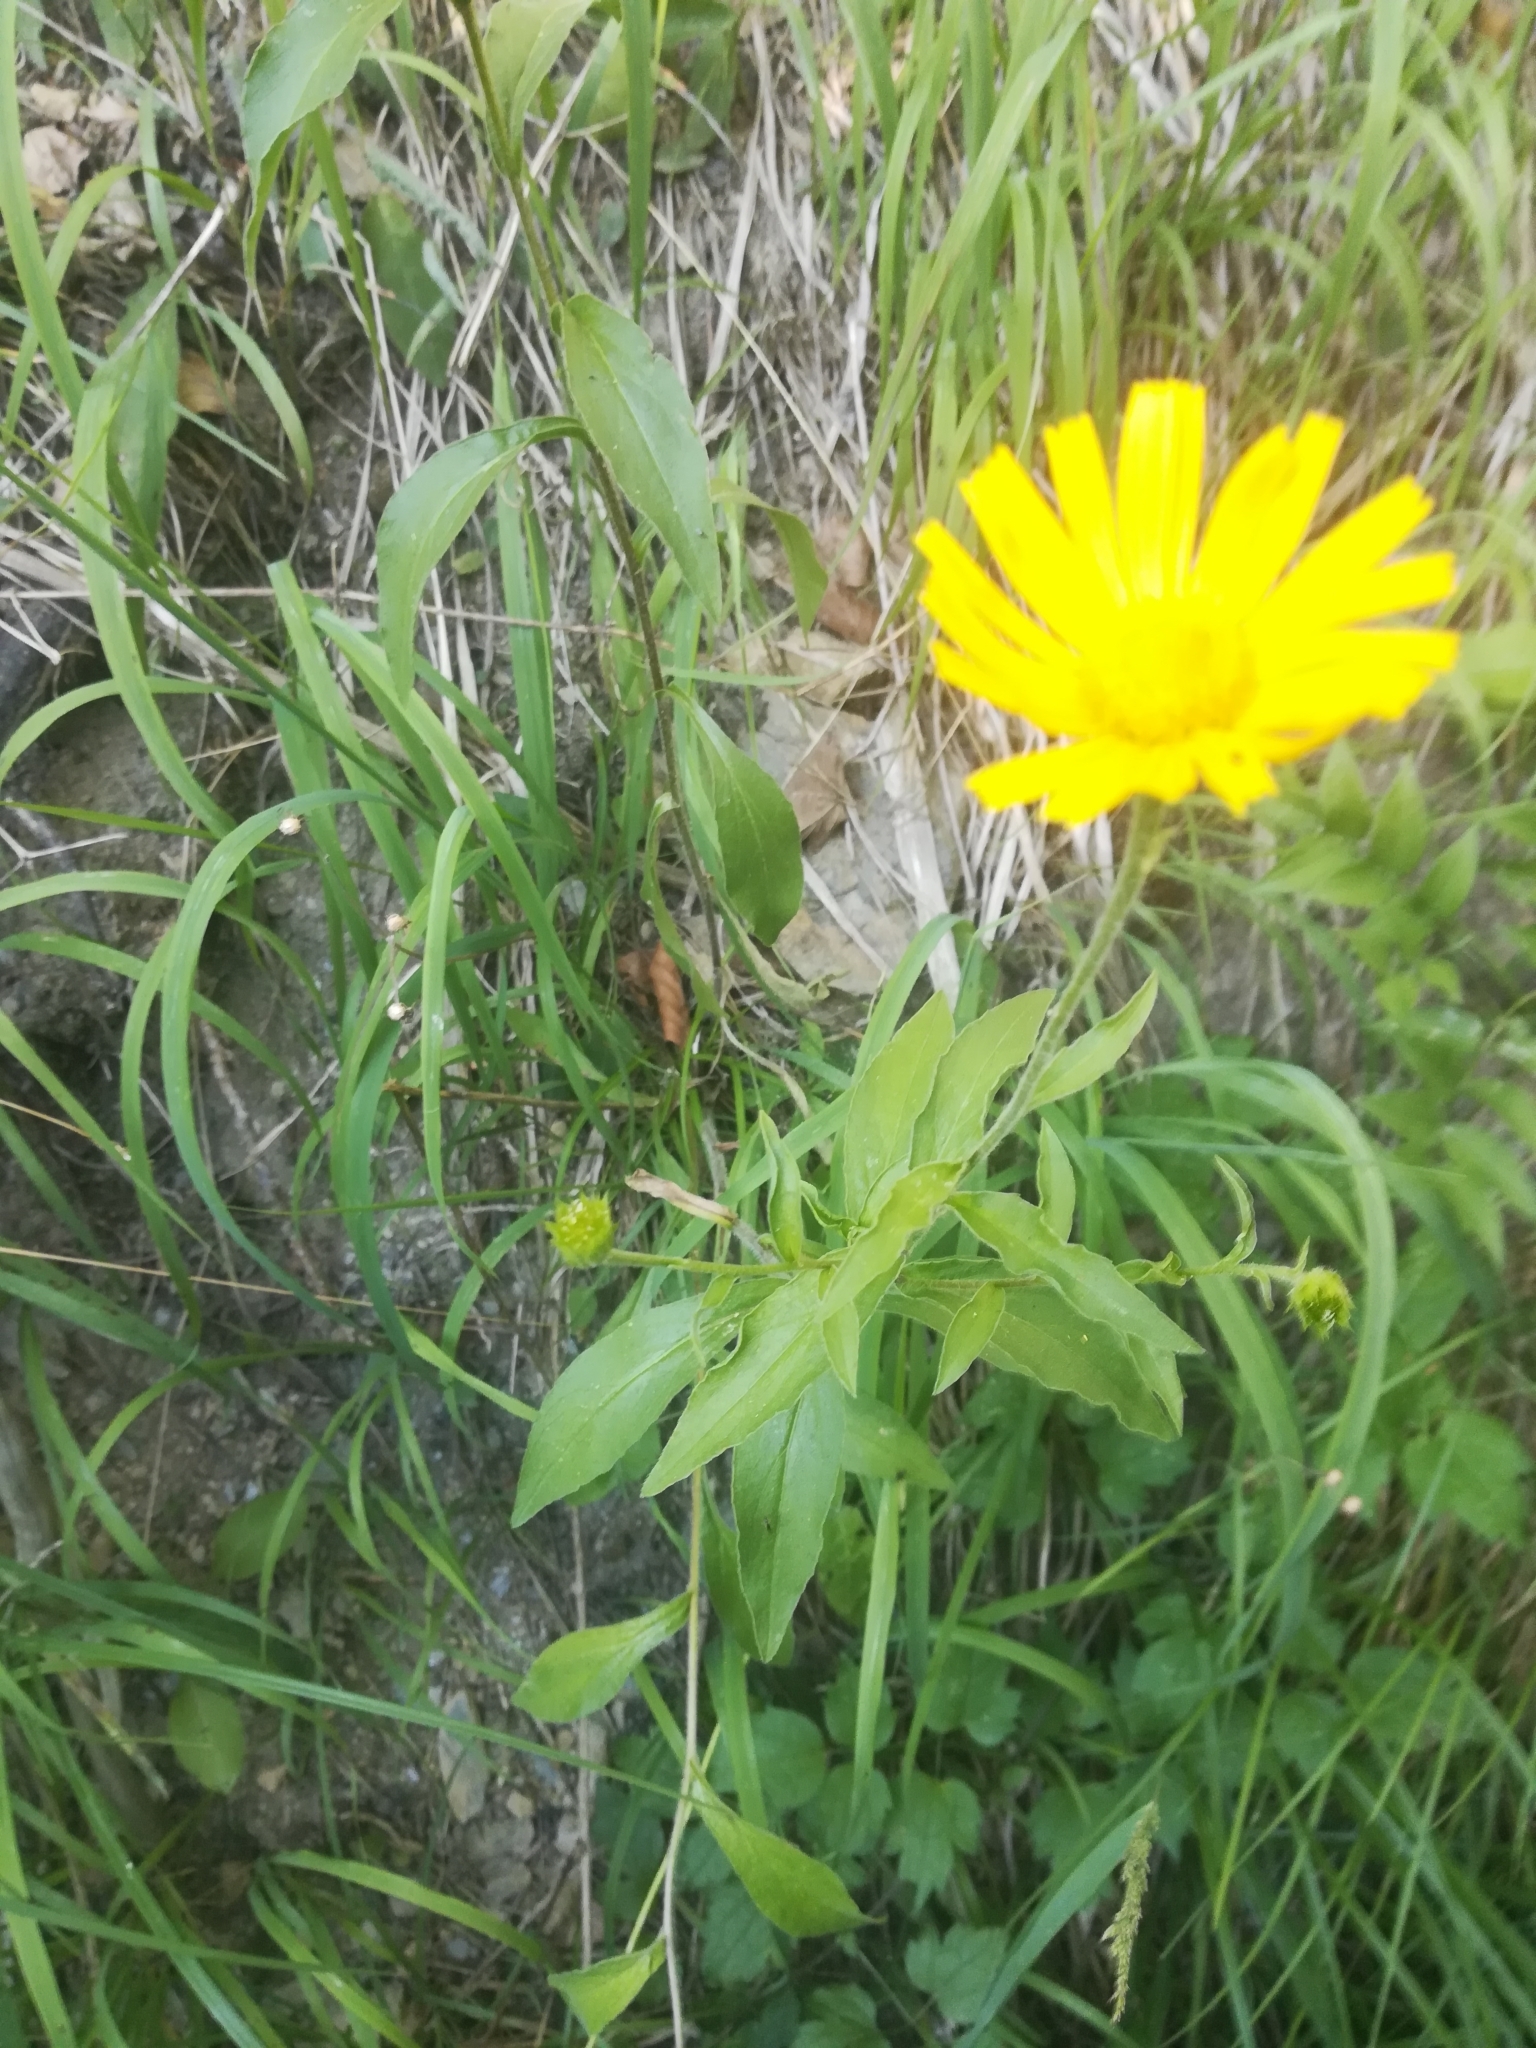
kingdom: Plantae
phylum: Tracheophyta
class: Magnoliopsida
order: Asterales
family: Asteraceae
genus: Buphthalmum
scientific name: Buphthalmum salicifolium
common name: Willow-leaved yellow-oxeye
